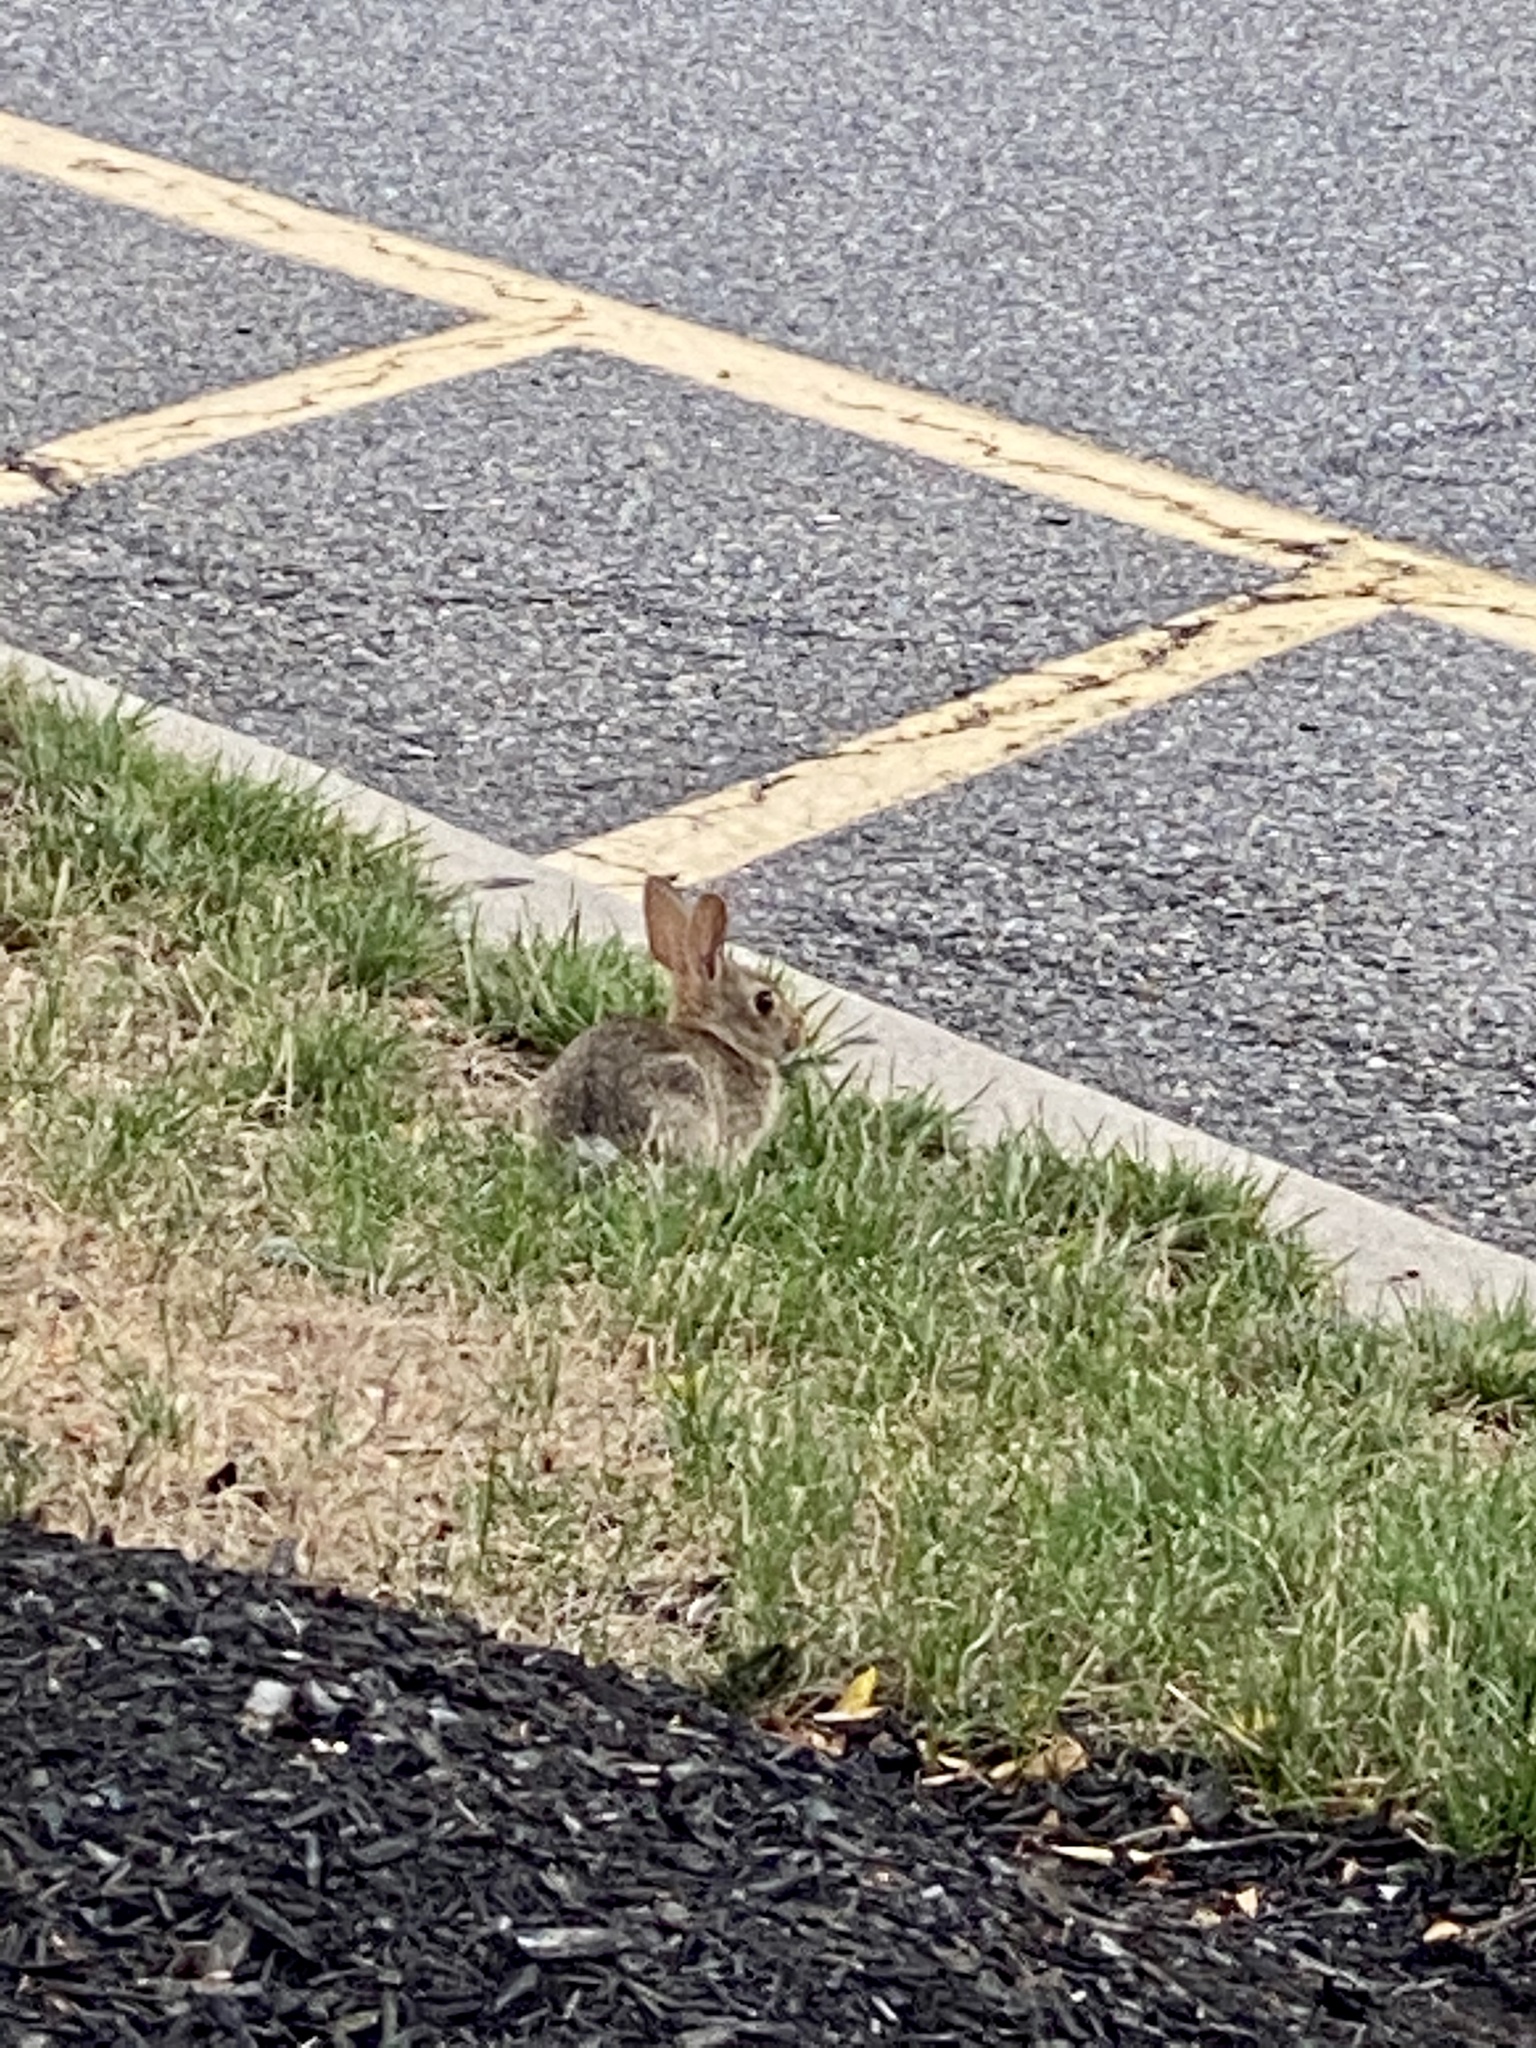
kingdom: Animalia
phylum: Chordata
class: Mammalia
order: Lagomorpha
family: Leporidae
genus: Sylvilagus
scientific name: Sylvilagus floridanus
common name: Eastern cottontail
